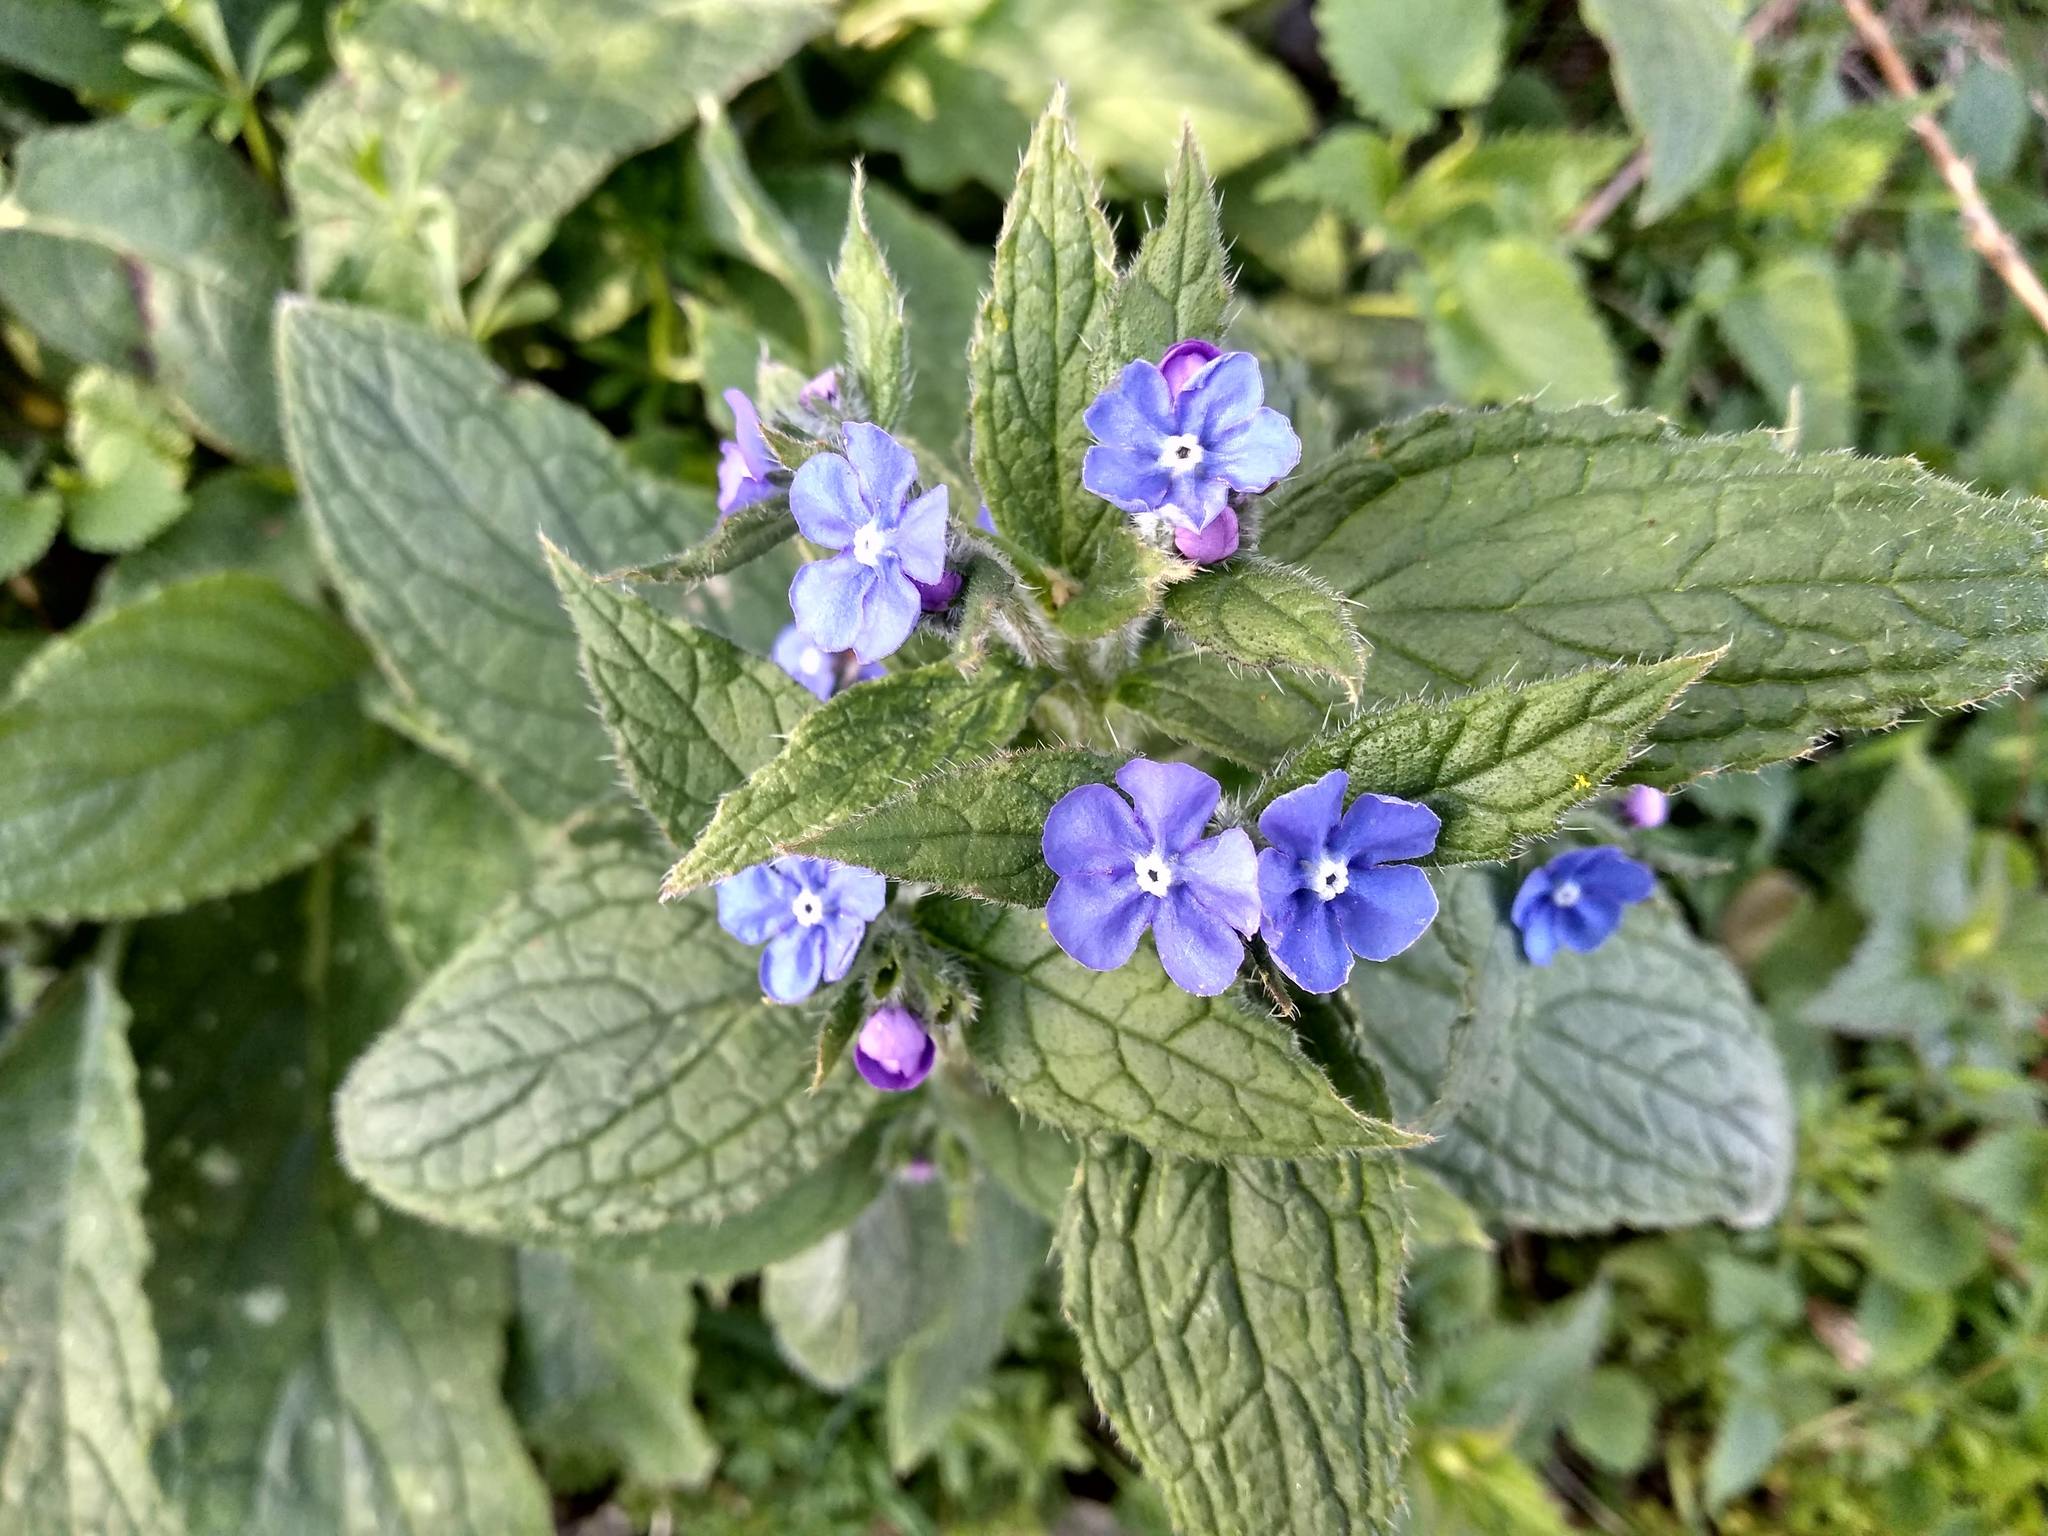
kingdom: Plantae
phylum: Tracheophyta
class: Magnoliopsida
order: Boraginales
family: Boraginaceae
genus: Pentaglottis
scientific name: Pentaglottis sempervirens
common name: Green alkanet
